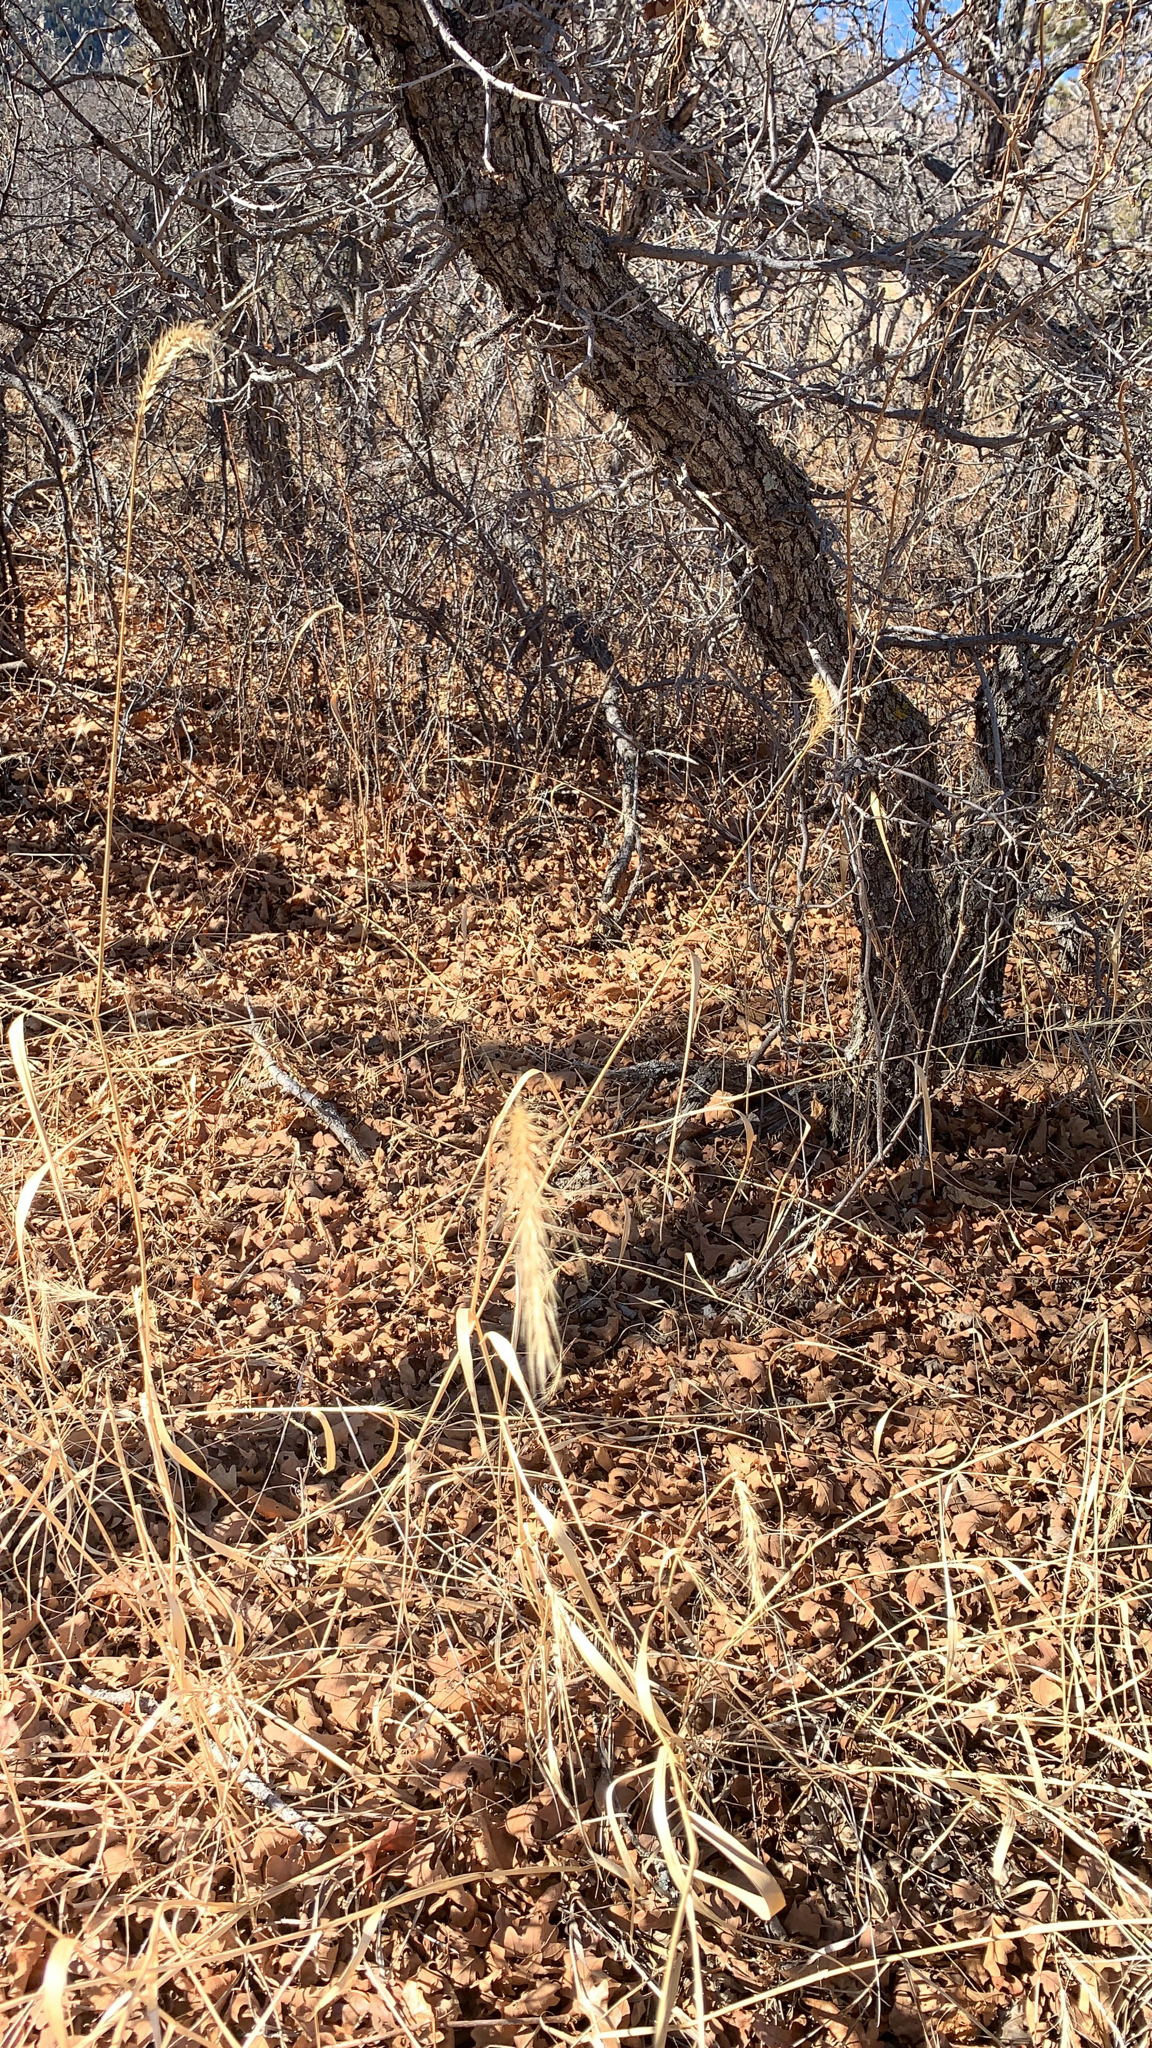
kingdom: Plantae
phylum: Tracheophyta
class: Liliopsida
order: Poales
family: Poaceae
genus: Elymus
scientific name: Elymus canadensis
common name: Canada wild rye
